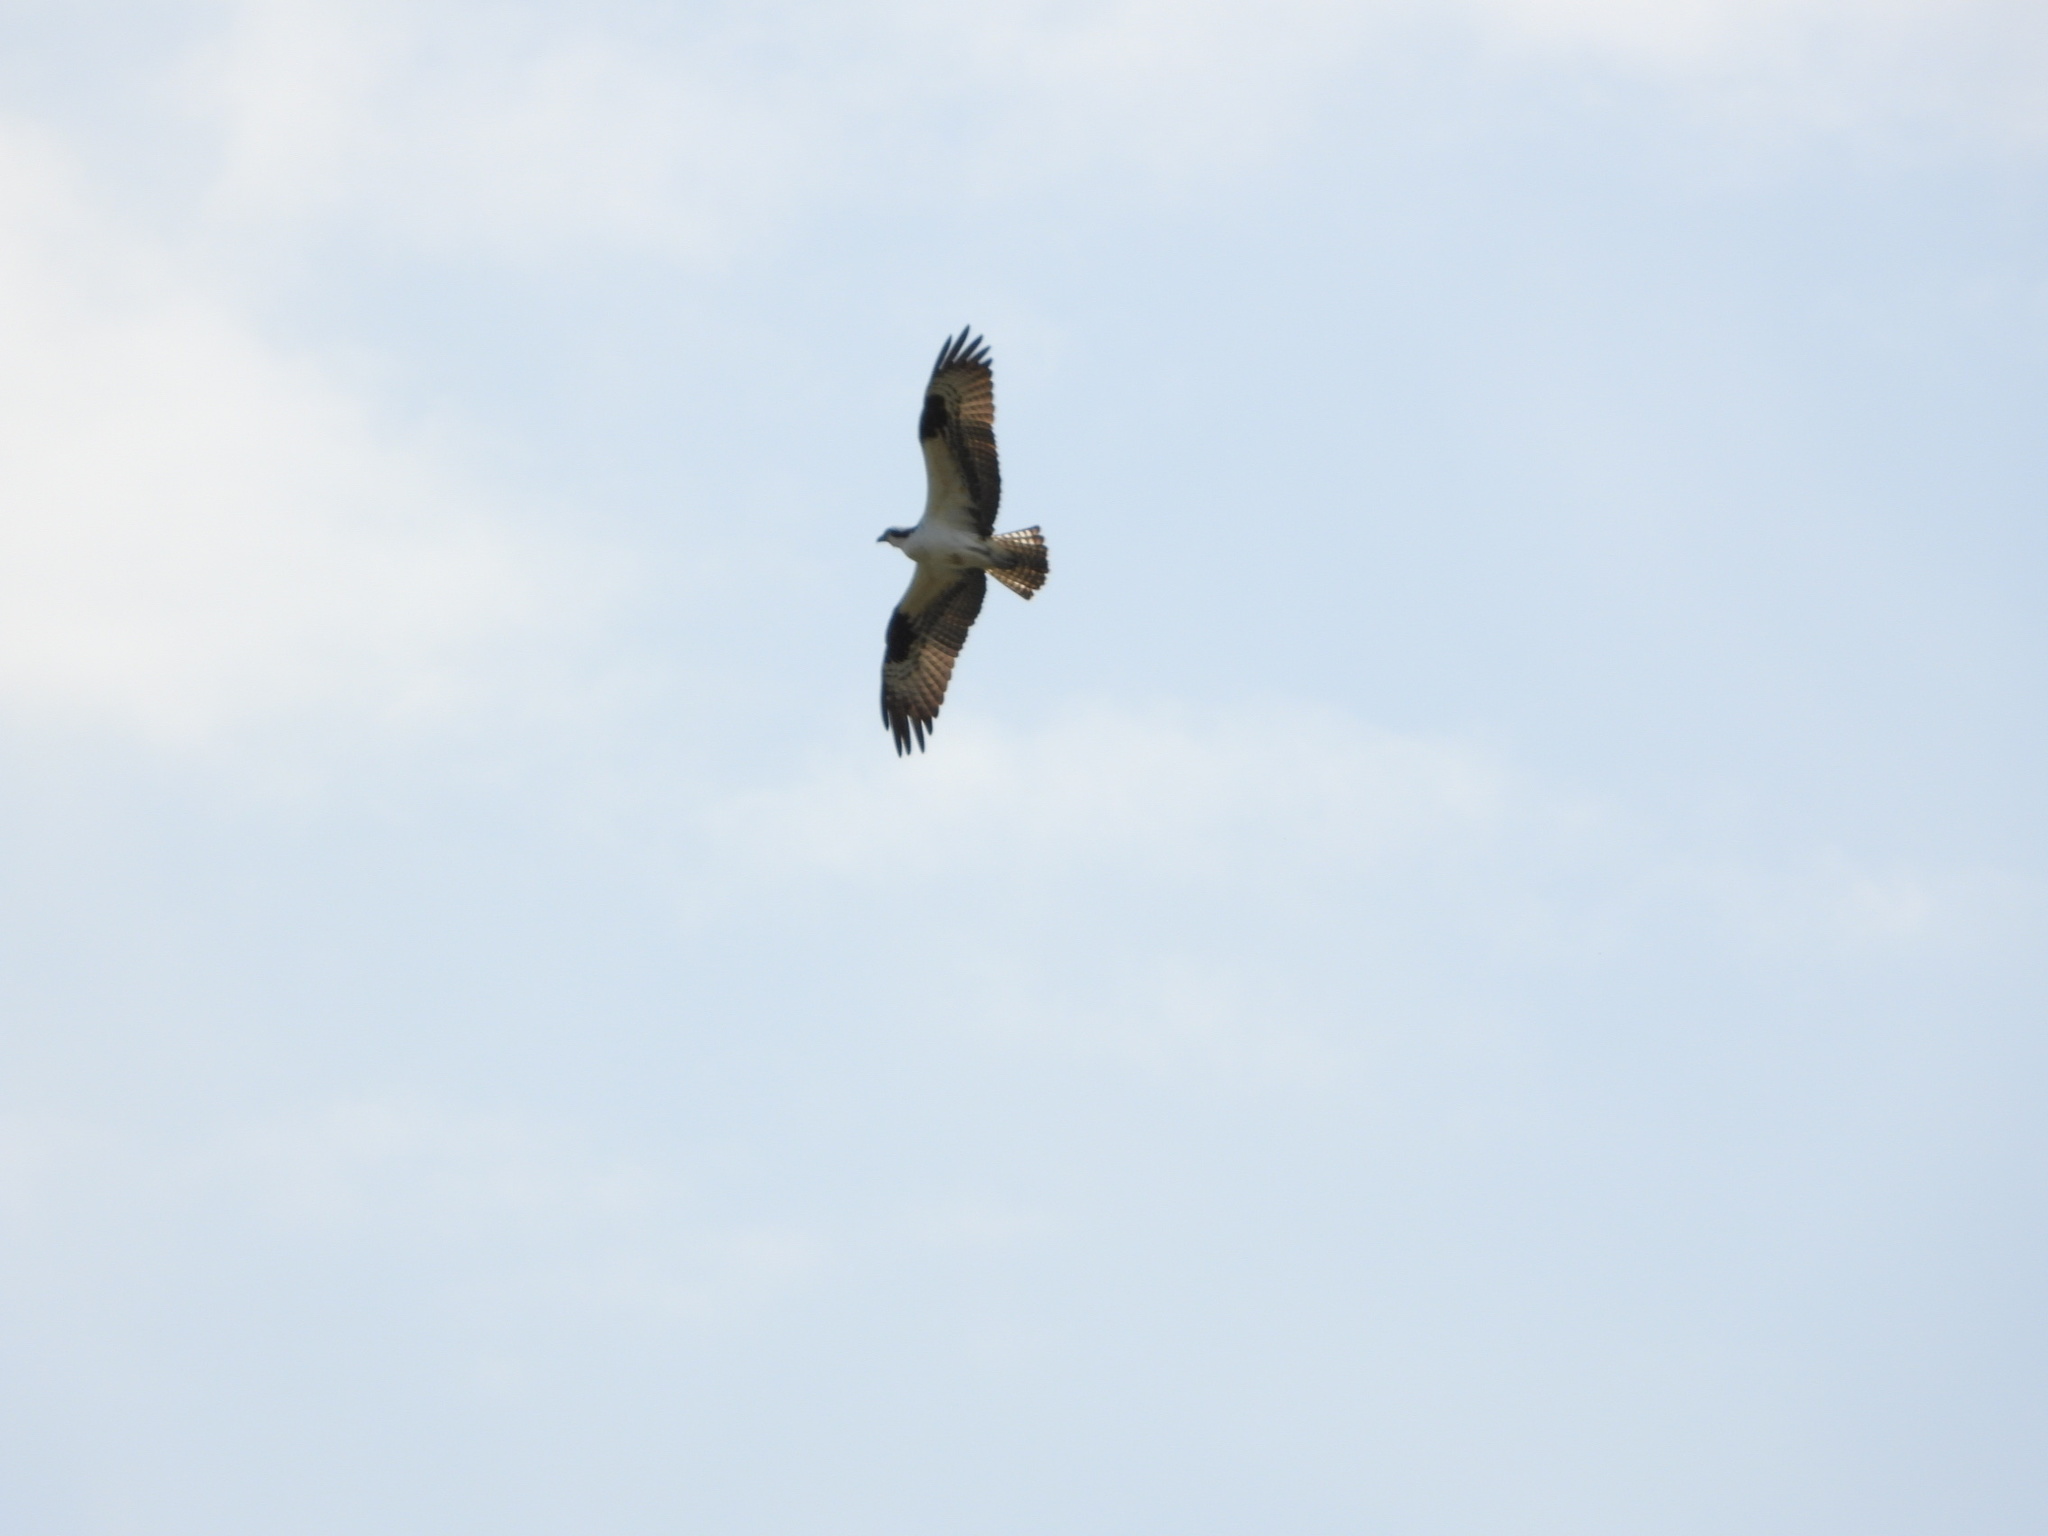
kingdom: Animalia
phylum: Chordata
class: Aves
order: Accipitriformes
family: Pandionidae
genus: Pandion
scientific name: Pandion haliaetus
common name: Osprey
